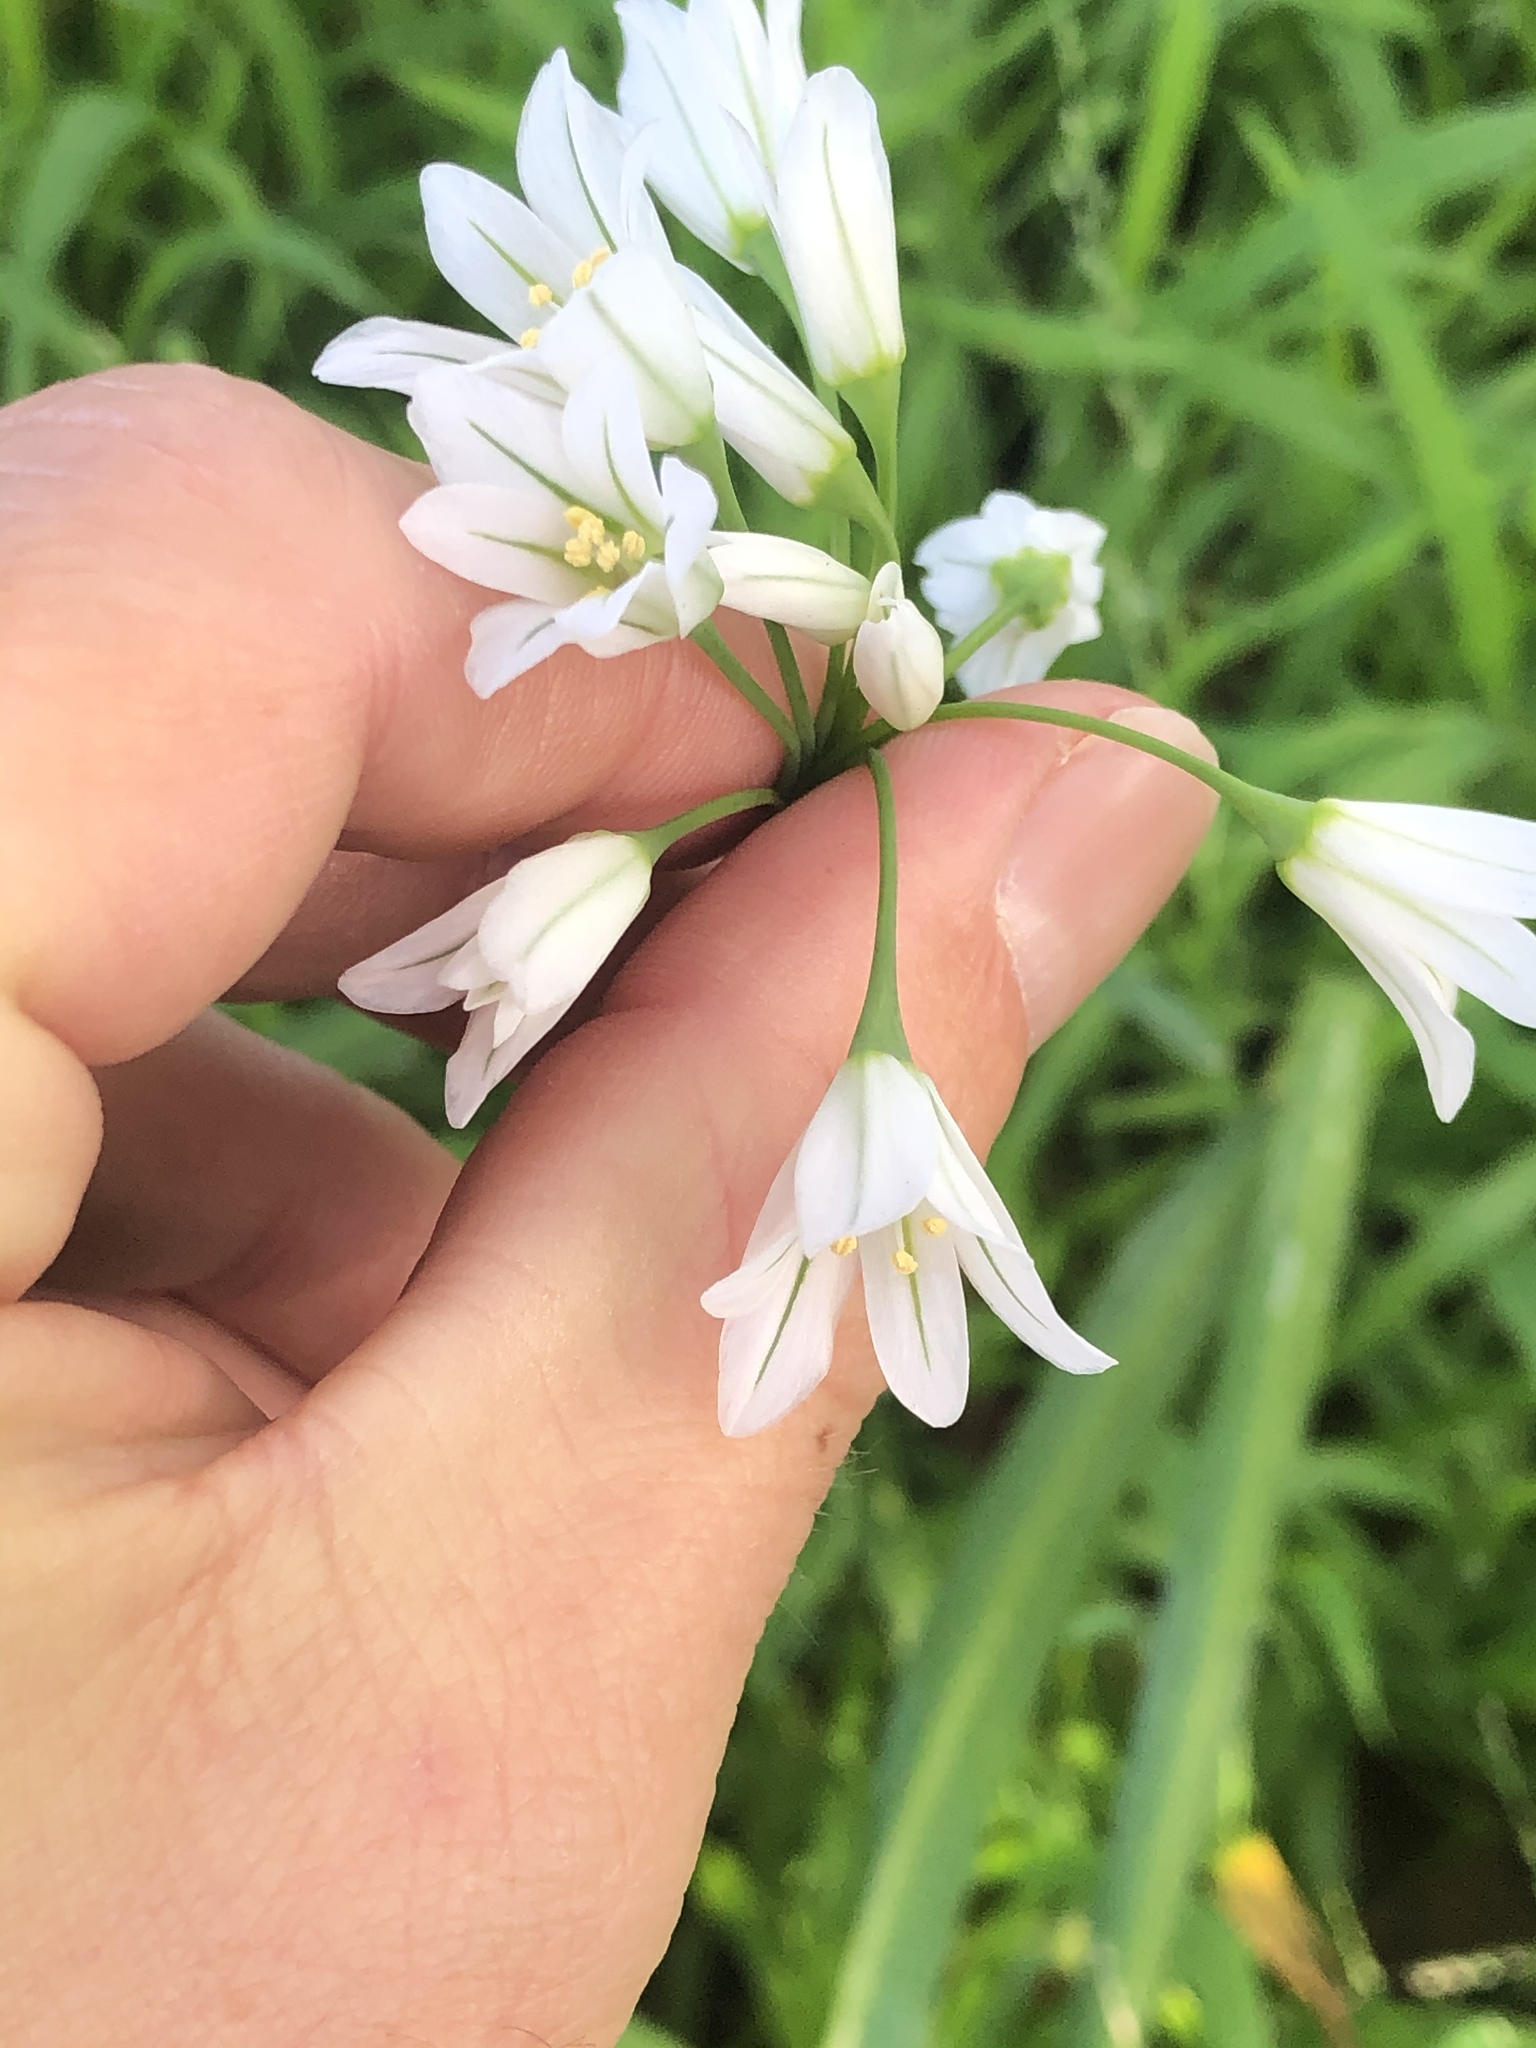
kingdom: Plantae
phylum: Tracheophyta
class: Liliopsida
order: Asparagales
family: Amaryllidaceae
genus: Allium
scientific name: Allium triquetrum
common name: Three-cornered garlic
